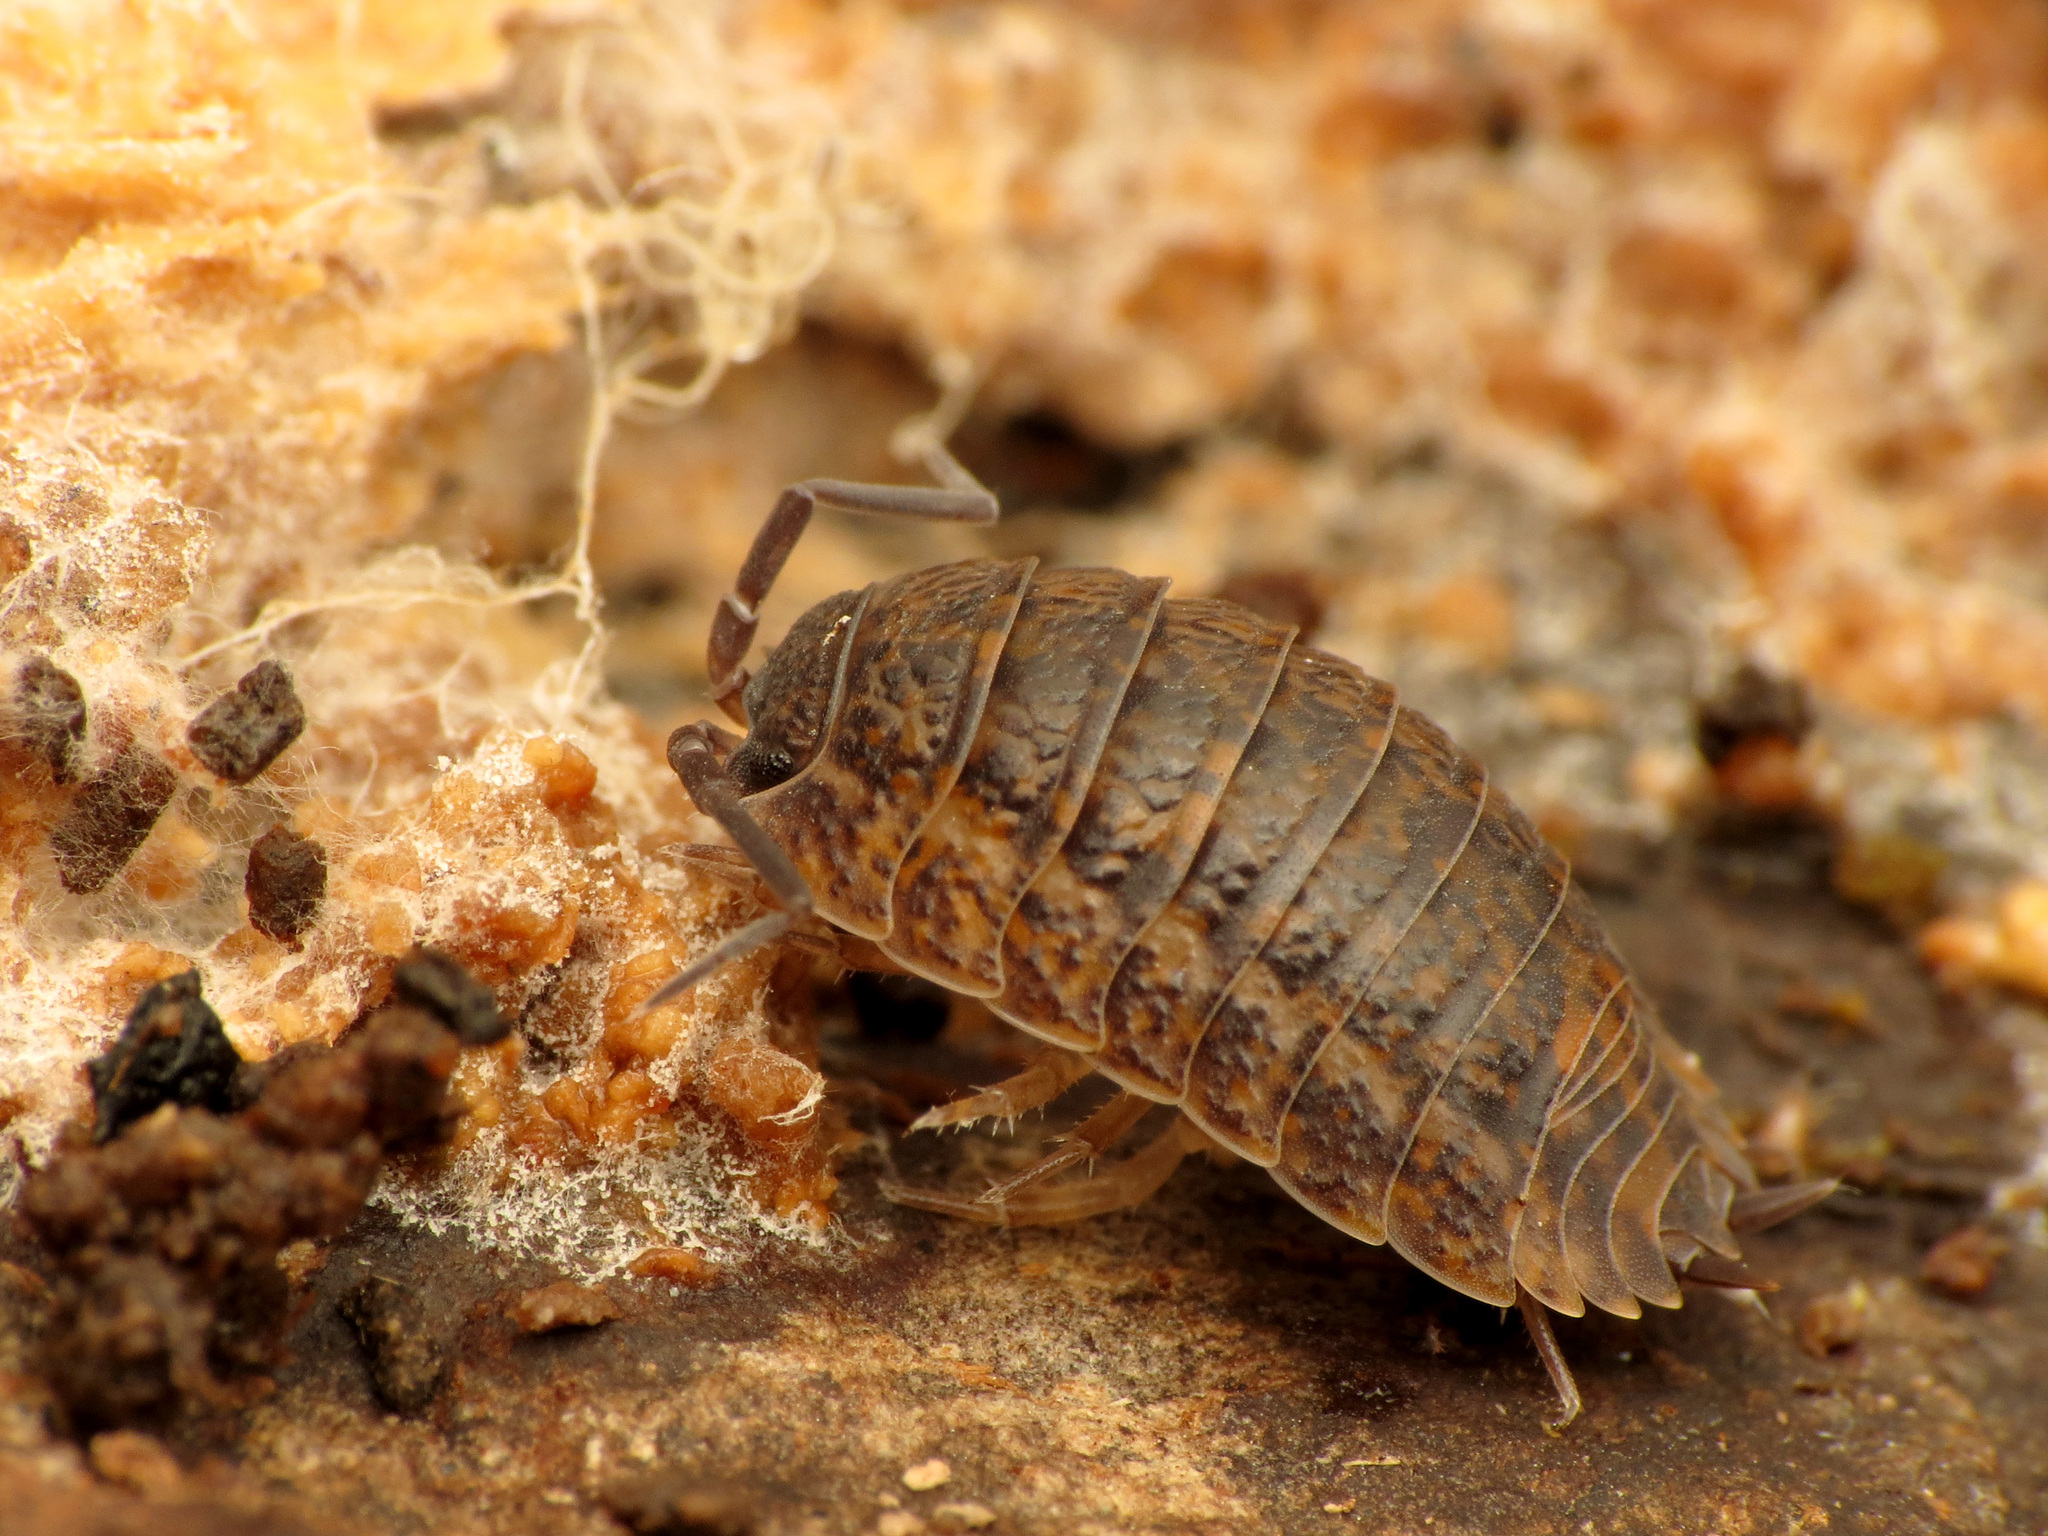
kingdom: Animalia
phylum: Arthropoda
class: Malacostraca
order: Isopoda
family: Trachelipodidae
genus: Trachelipus
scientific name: Trachelipus rathkii
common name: Isopod
